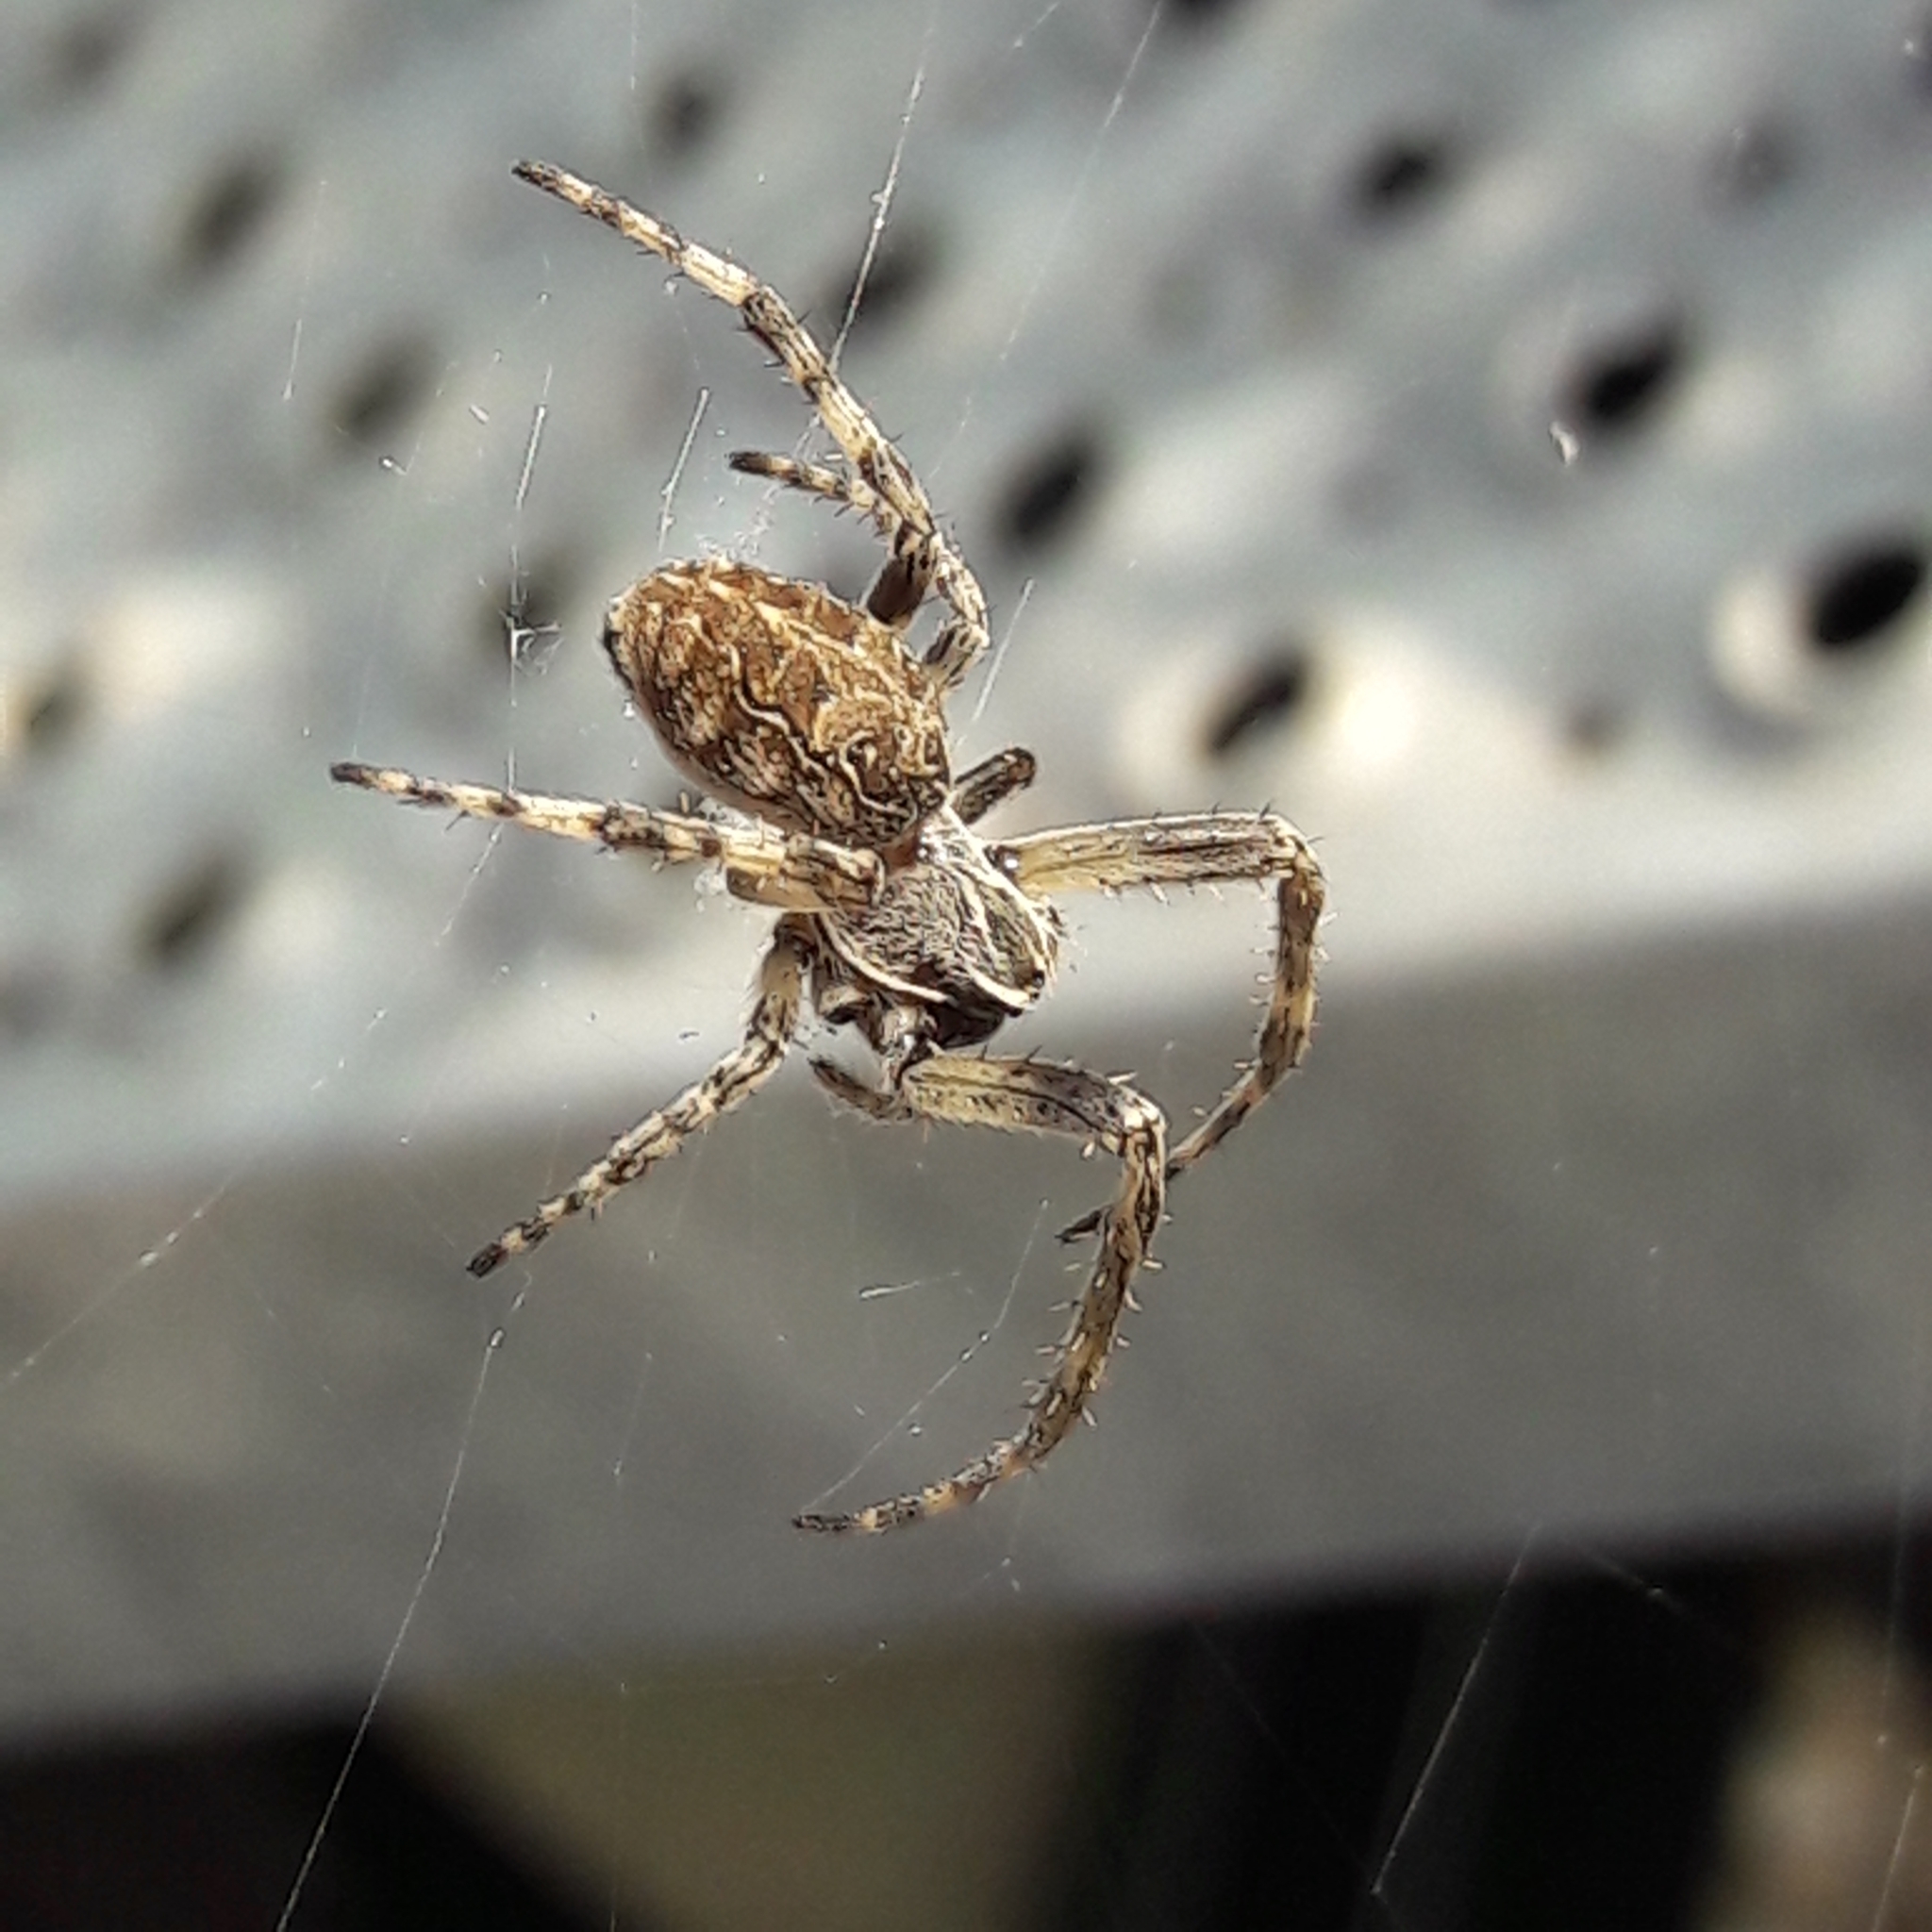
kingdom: Animalia
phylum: Arthropoda
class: Arachnida
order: Araneae
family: Araneidae
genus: Larinioides
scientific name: Larinioides sclopetarius
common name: Bridge orbweaver
